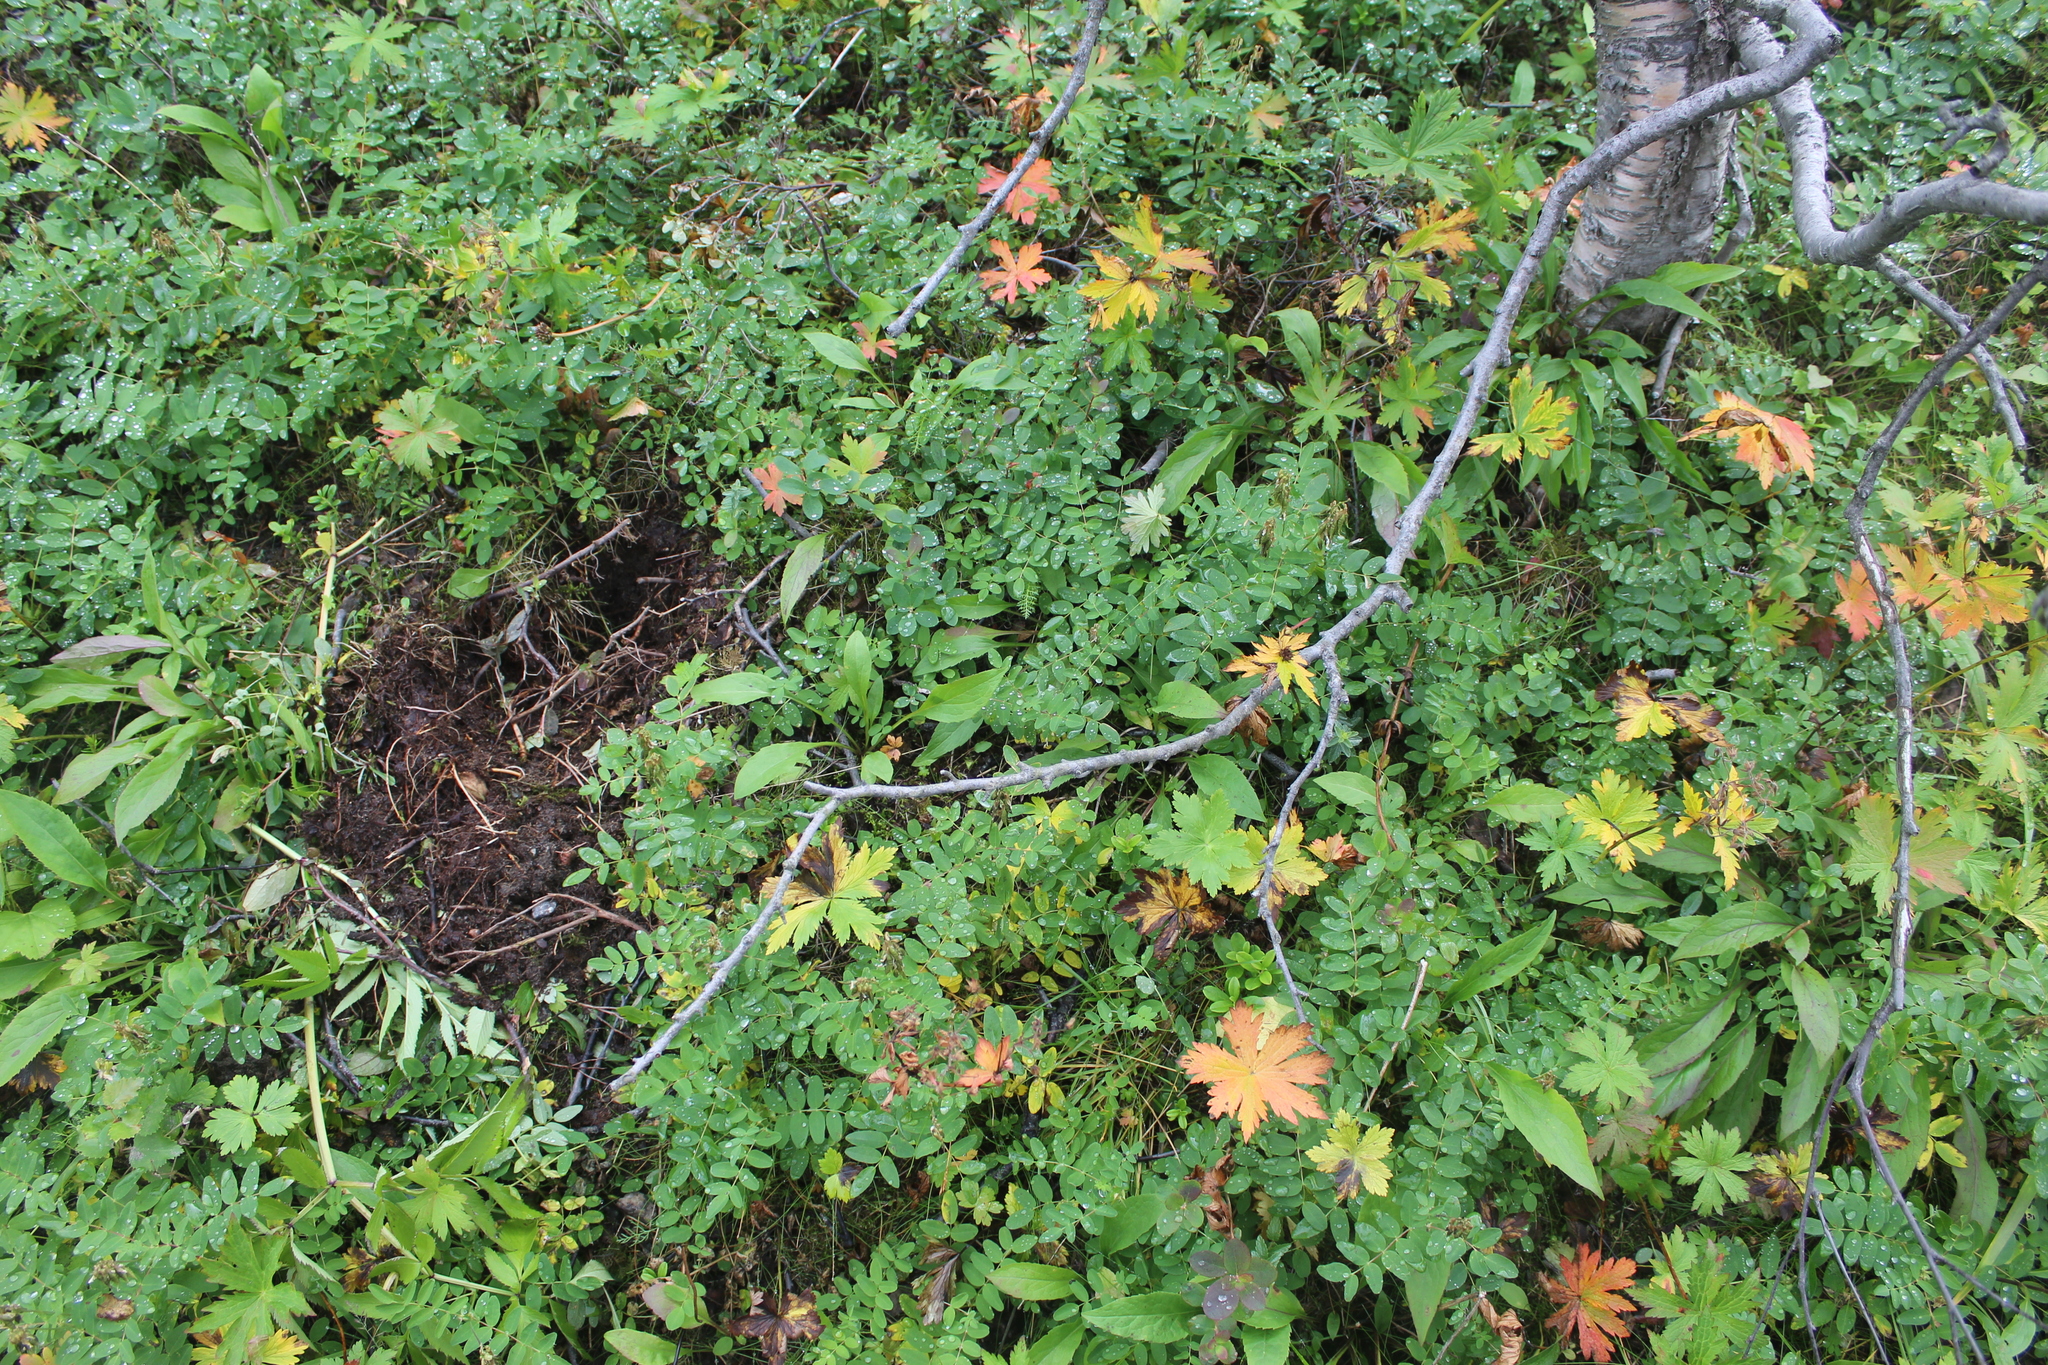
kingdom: Plantae
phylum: Tracheophyta
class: Magnoliopsida
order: Fabales
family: Fabaceae
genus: Astragalus
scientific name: Astragalus frigidus
